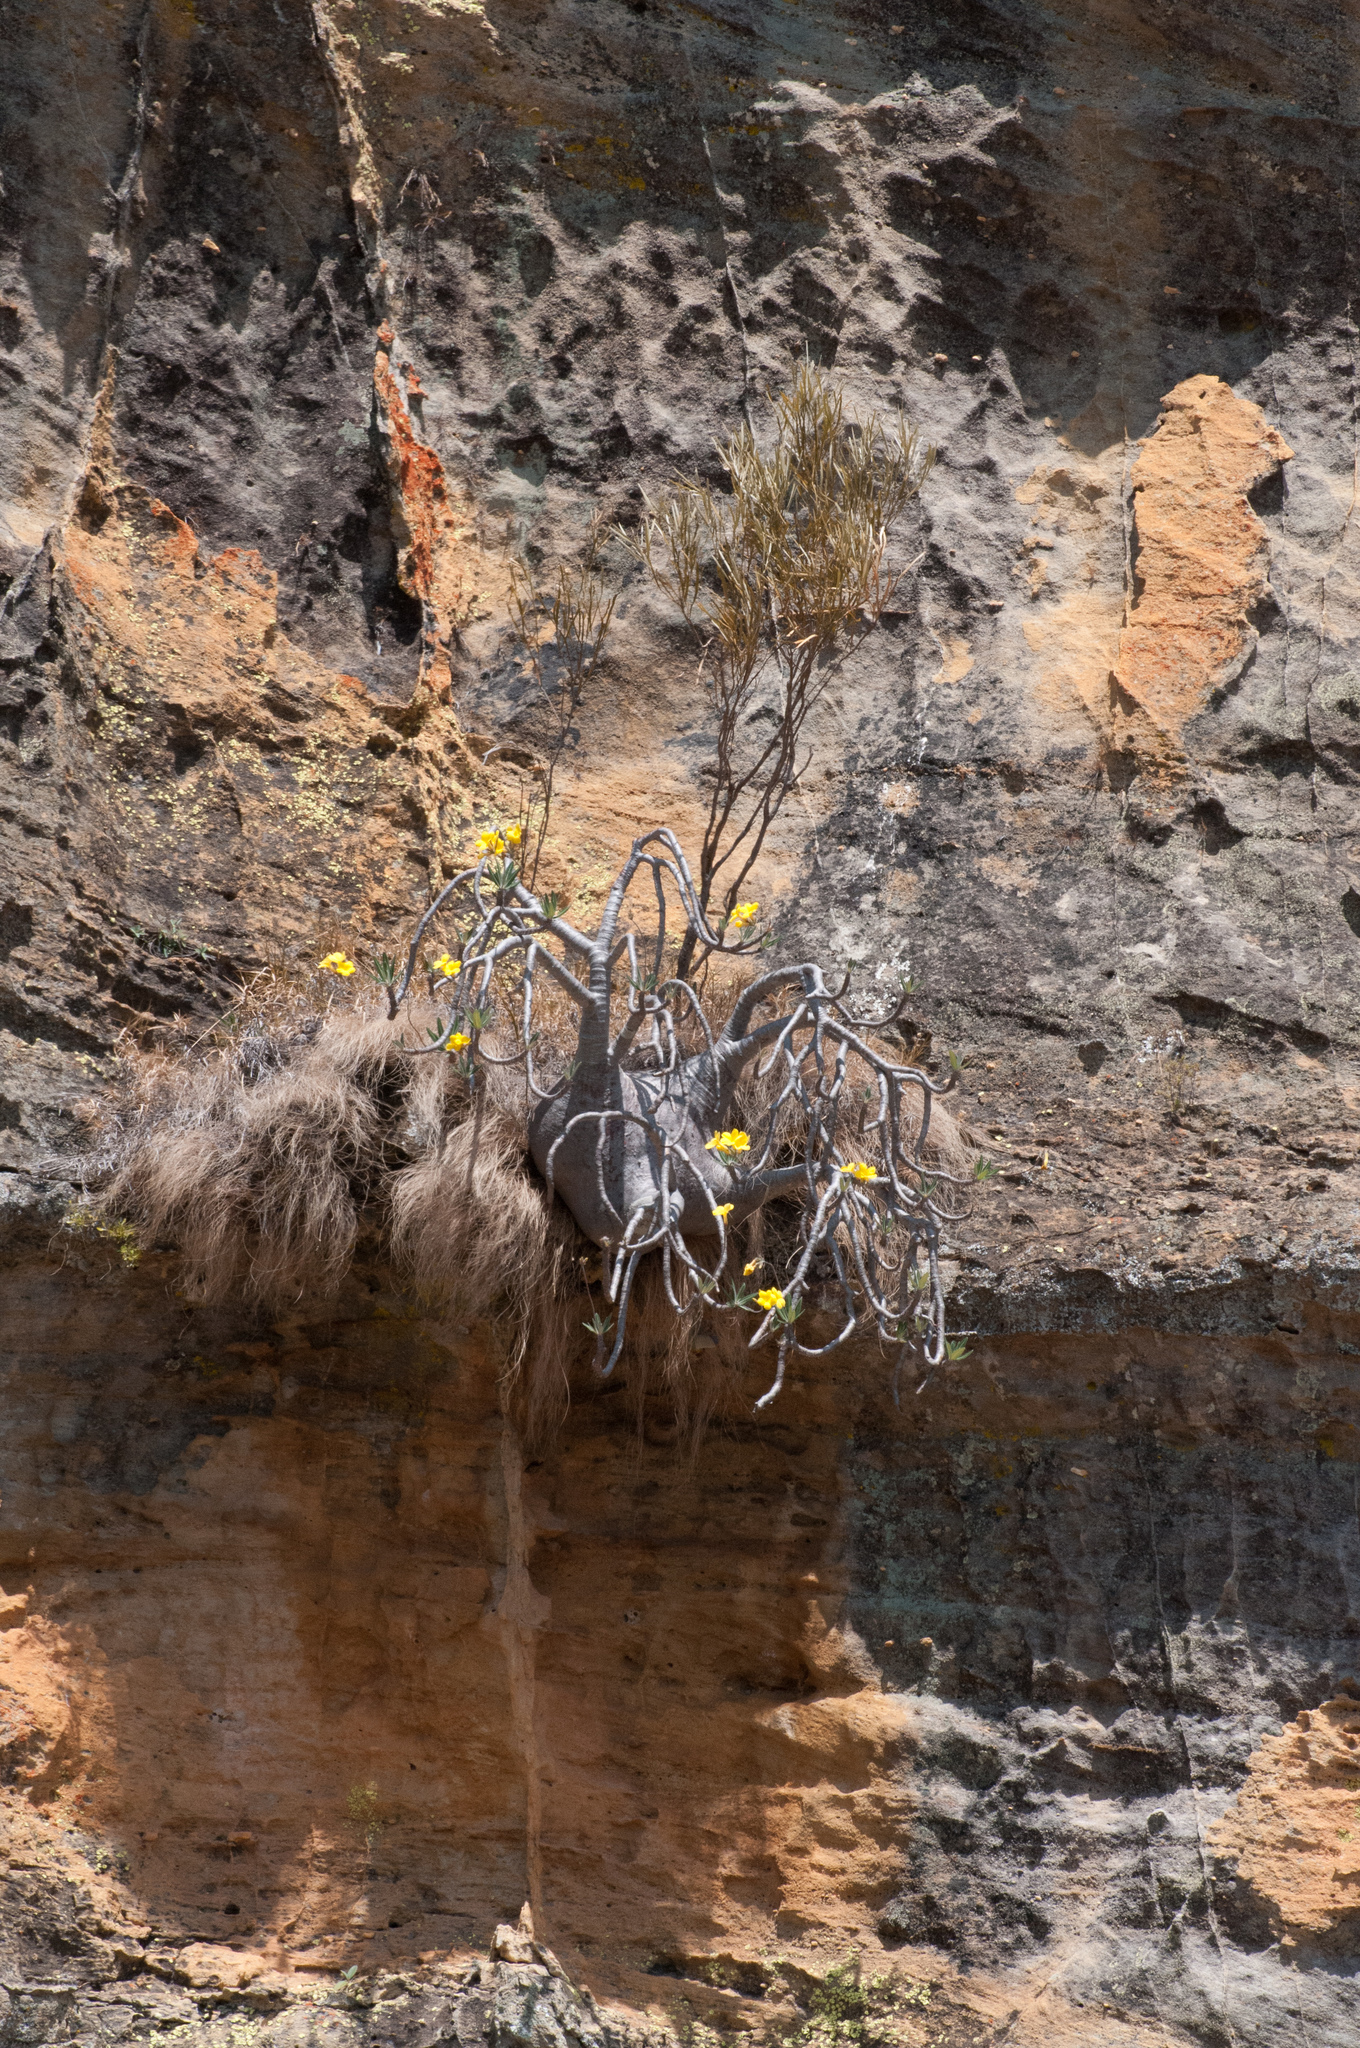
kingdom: Plantae
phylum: Tracheophyta
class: Magnoliopsida
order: Gentianales
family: Apocynaceae
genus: Pachypodium
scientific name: Pachypodium gracilius
